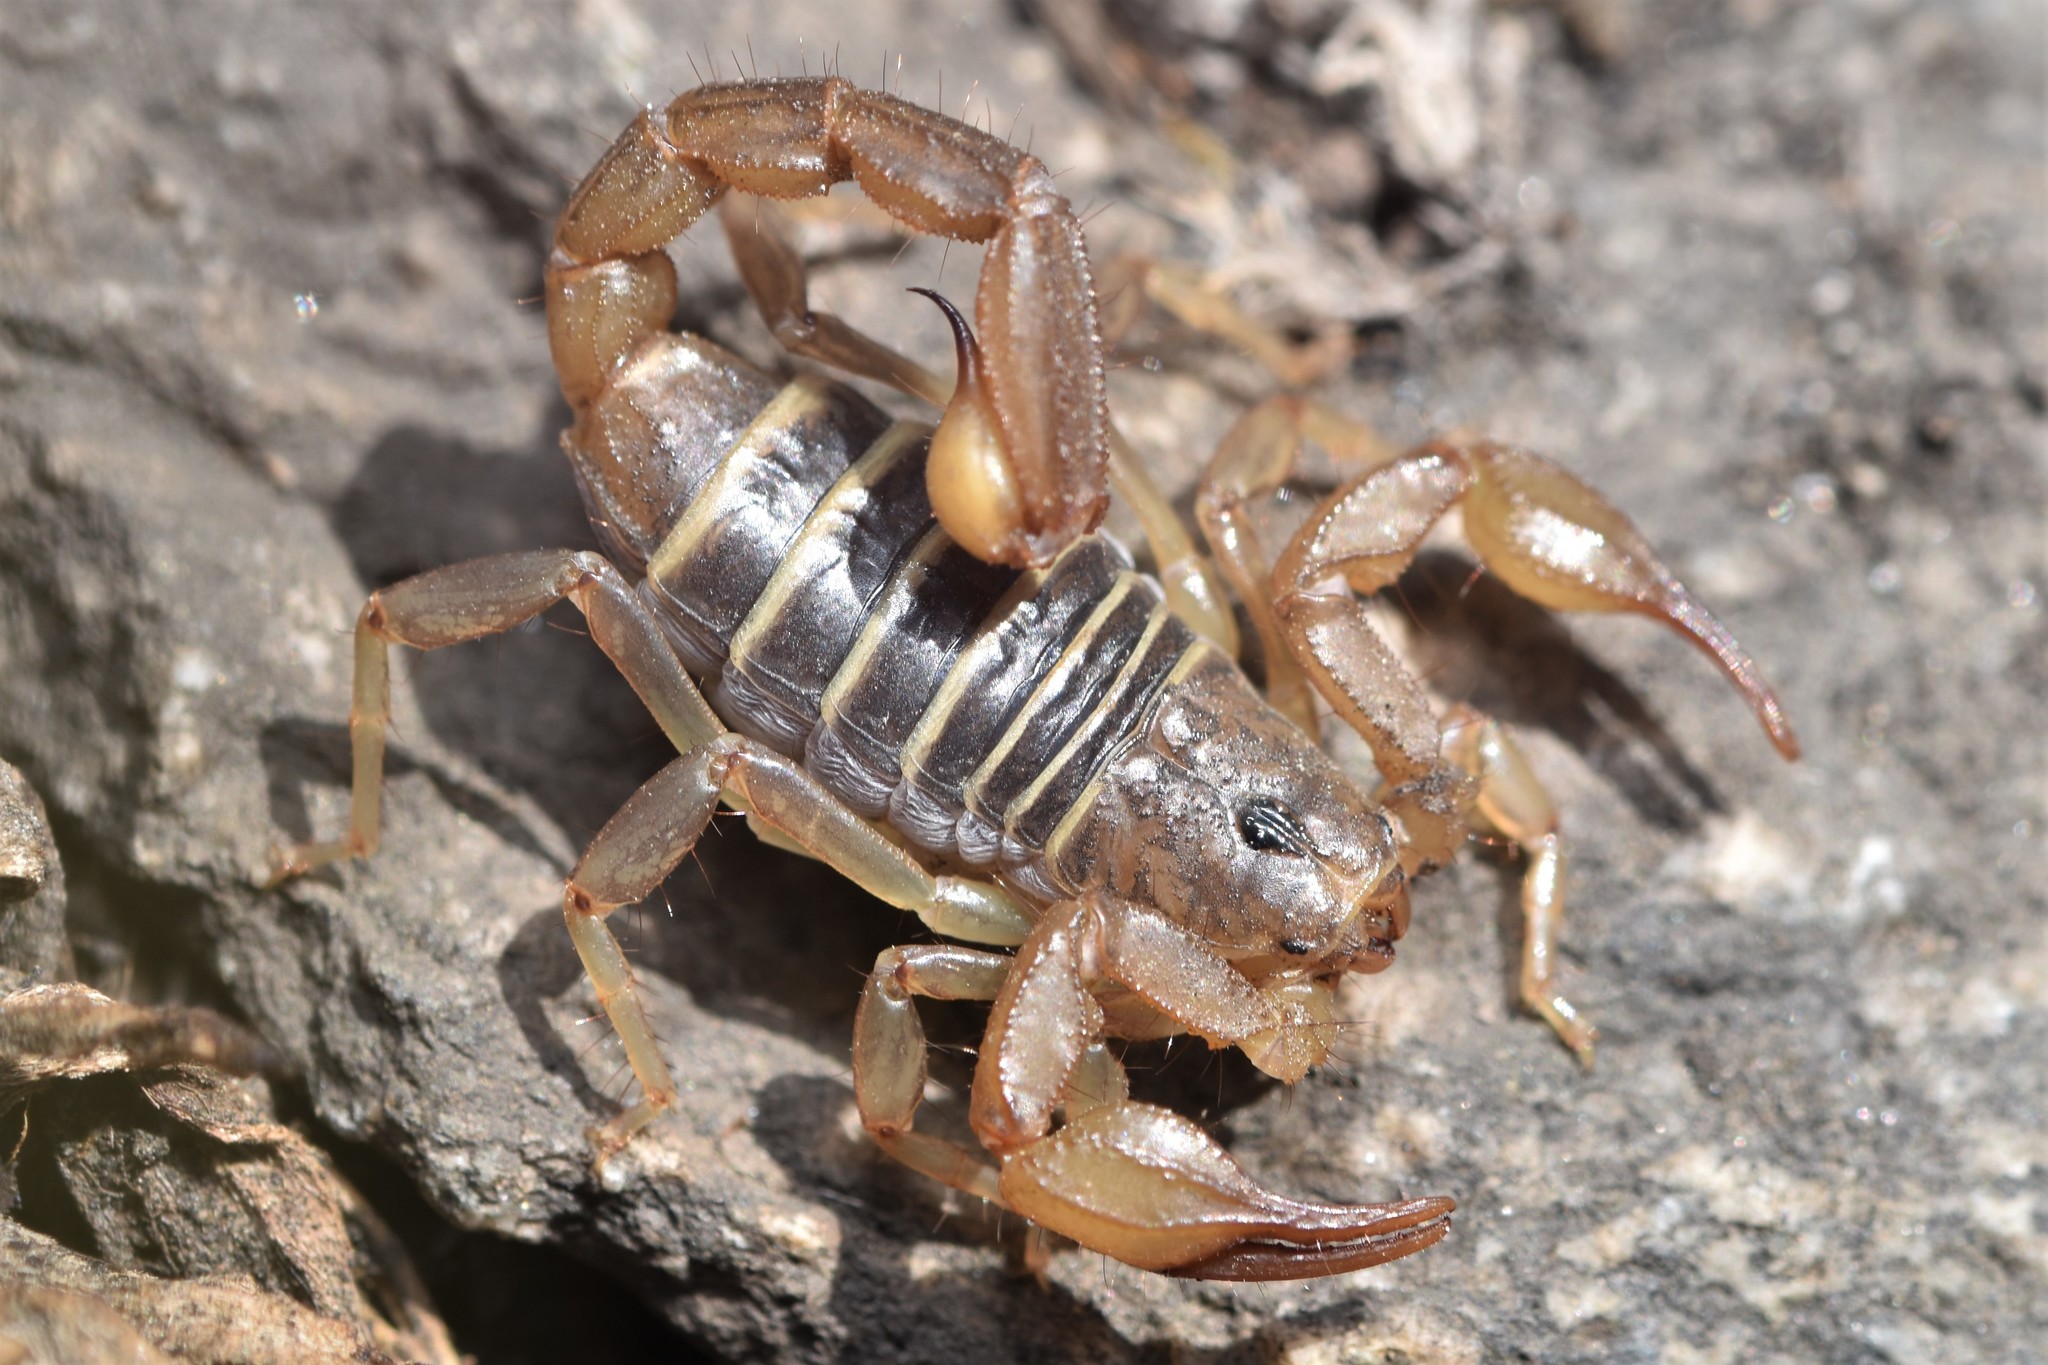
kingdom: Animalia
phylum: Arthropoda
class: Arachnida
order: Scorpiones
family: Vaejovidae
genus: Paruroctonus
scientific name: Paruroctonus boreus
